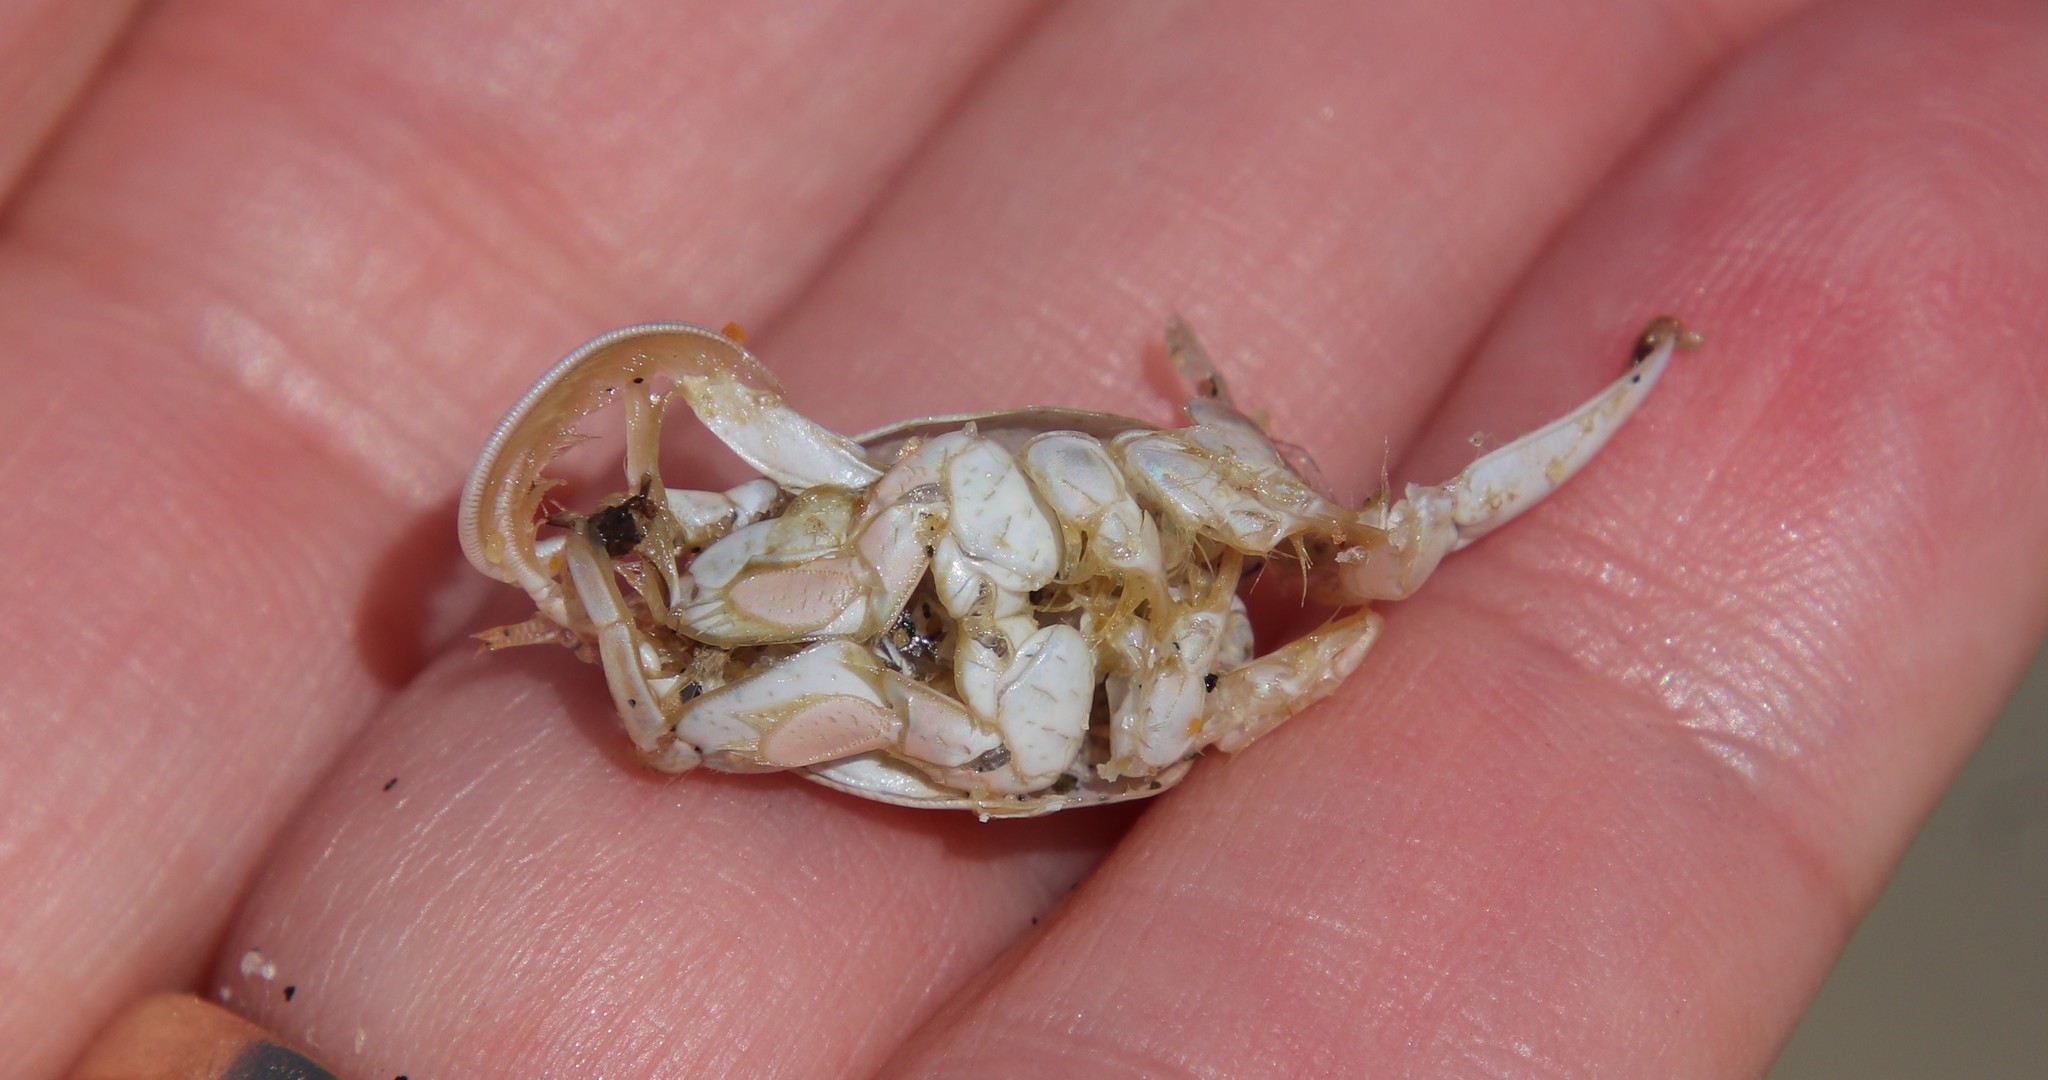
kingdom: Animalia
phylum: Arthropoda
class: Malacostraca
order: Decapoda
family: Hippidae
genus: Emerita
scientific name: Emerita analoga
